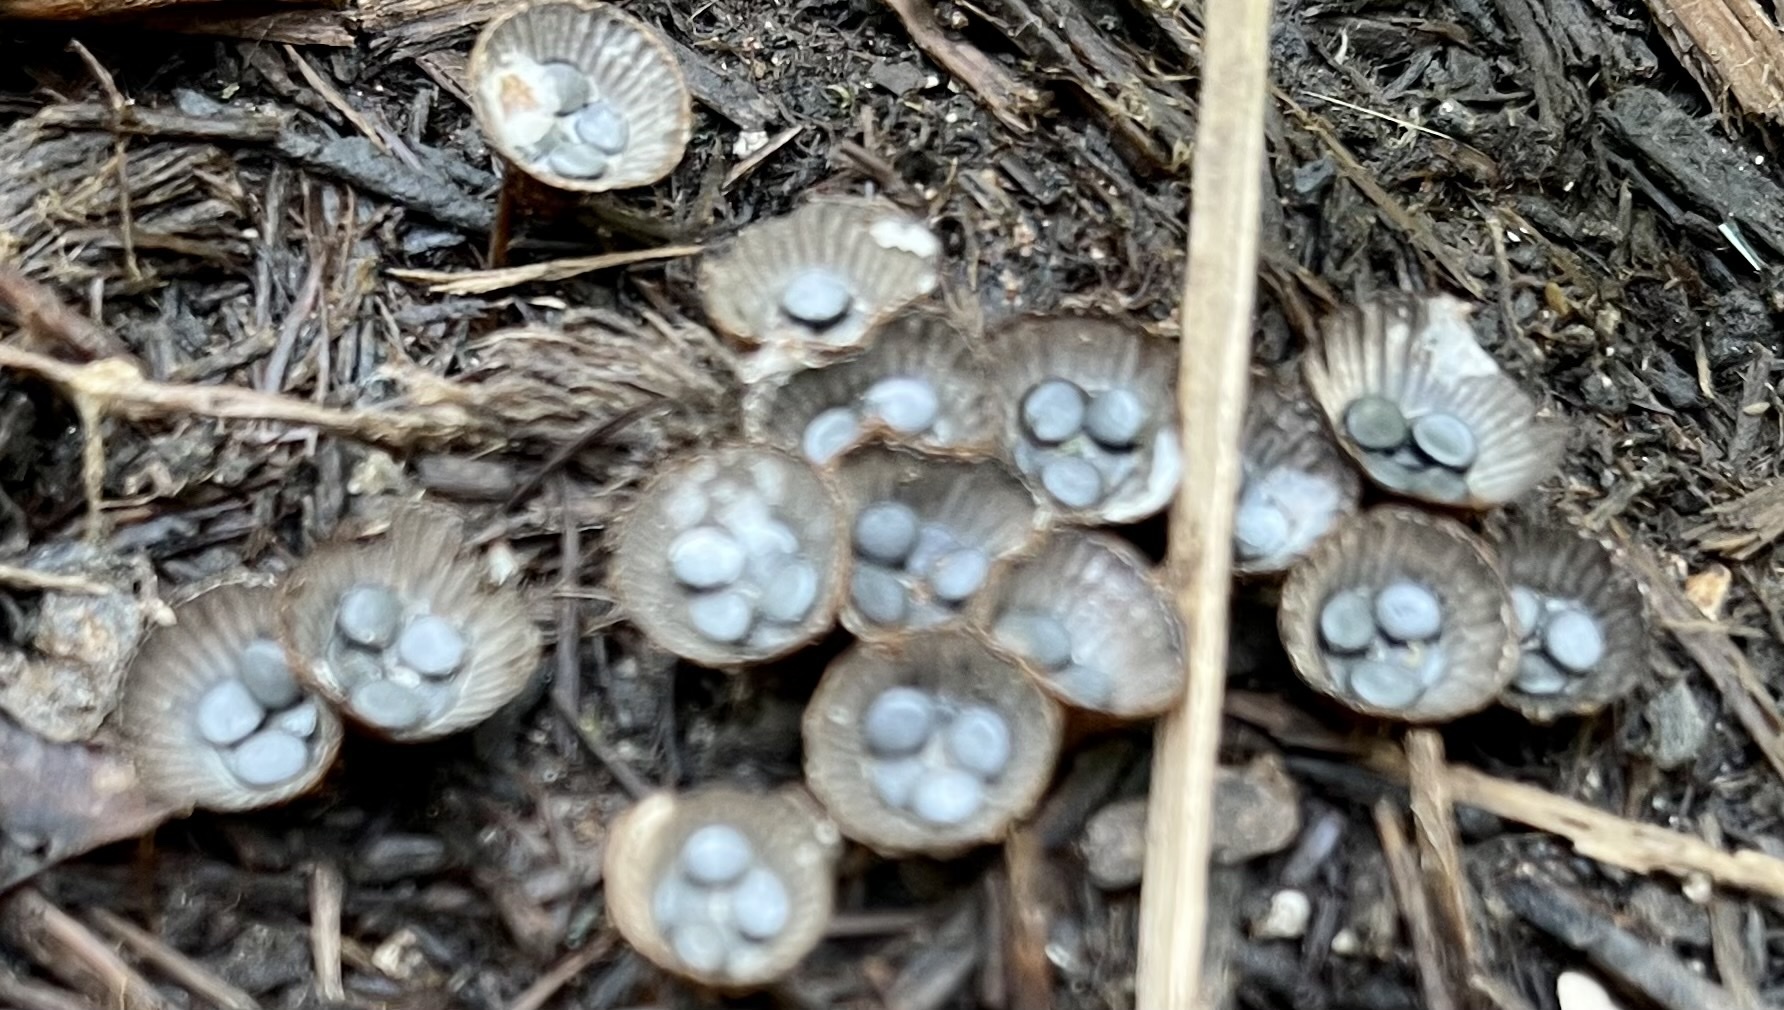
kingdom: Fungi
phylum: Basidiomycota
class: Agaricomycetes
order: Agaricales
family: Agaricaceae
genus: Cyathus
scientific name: Cyathus striatus
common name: Fluted bird's nest
